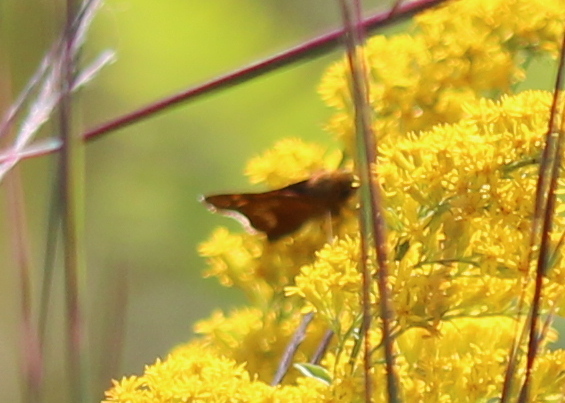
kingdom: Animalia
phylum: Arthropoda
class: Insecta
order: Lepidoptera
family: Hesperiidae
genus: Hesperia
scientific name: Hesperia leonardus
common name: Leonard's skipper
